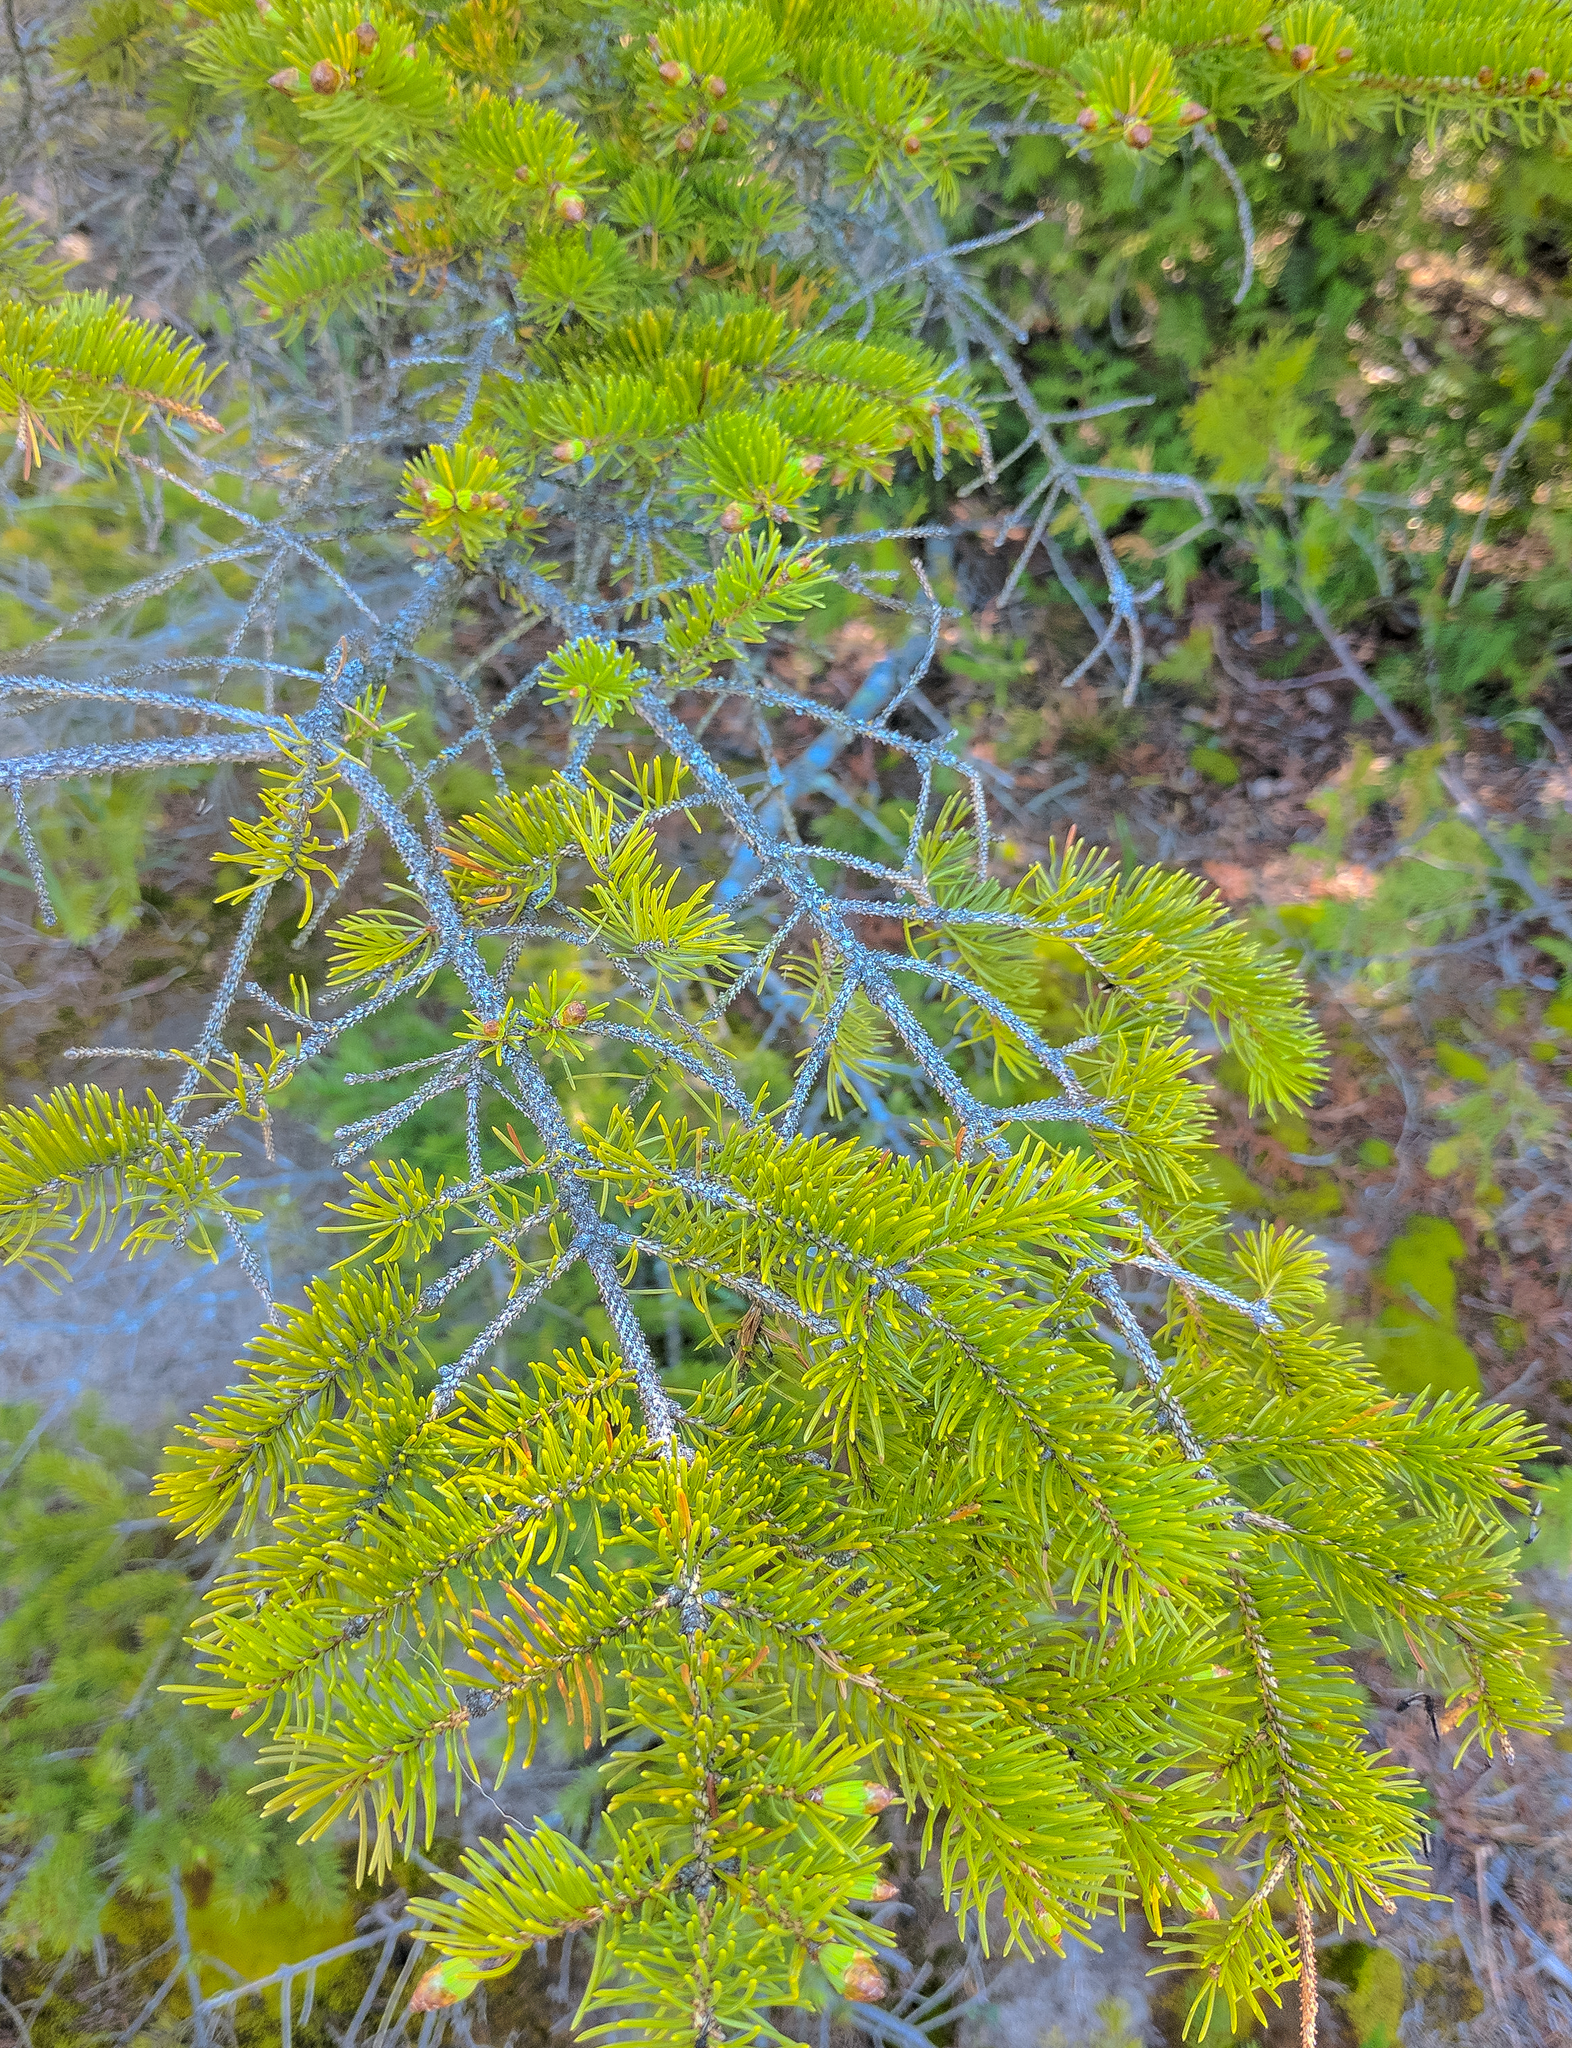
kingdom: Plantae
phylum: Tracheophyta
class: Pinopsida
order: Pinales
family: Pinaceae
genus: Picea
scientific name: Picea glauca
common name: White spruce
